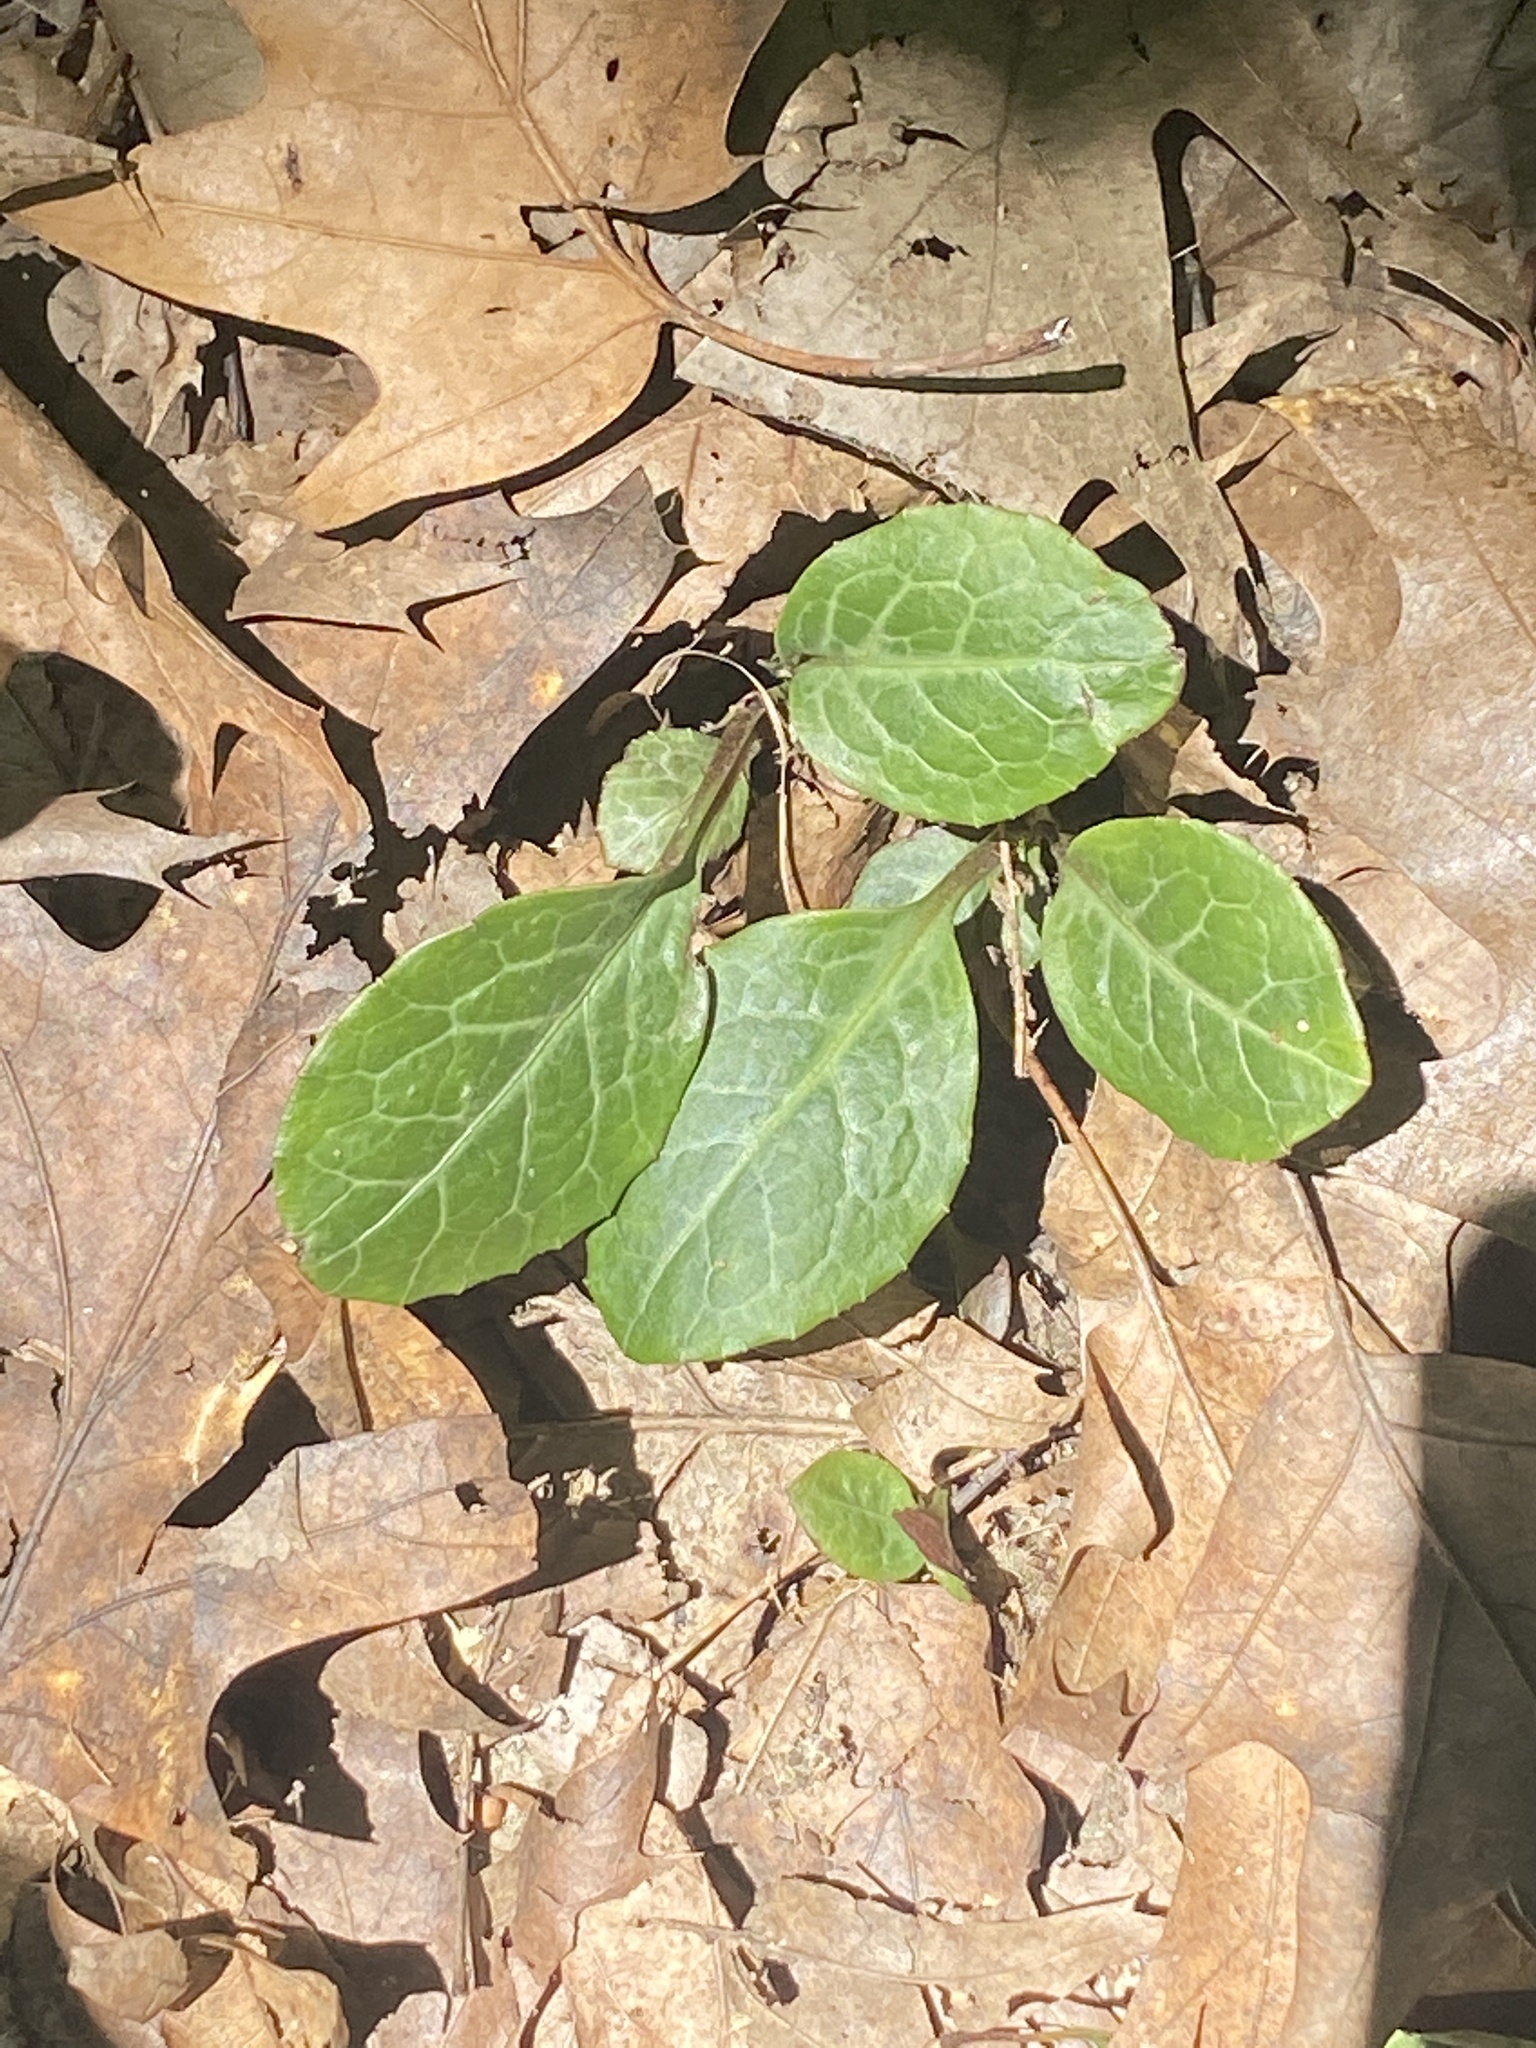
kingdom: Plantae
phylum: Tracheophyta
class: Magnoliopsida
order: Ericales
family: Ericaceae
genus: Pyrola
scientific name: Pyrola americana
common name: American wintergreen
